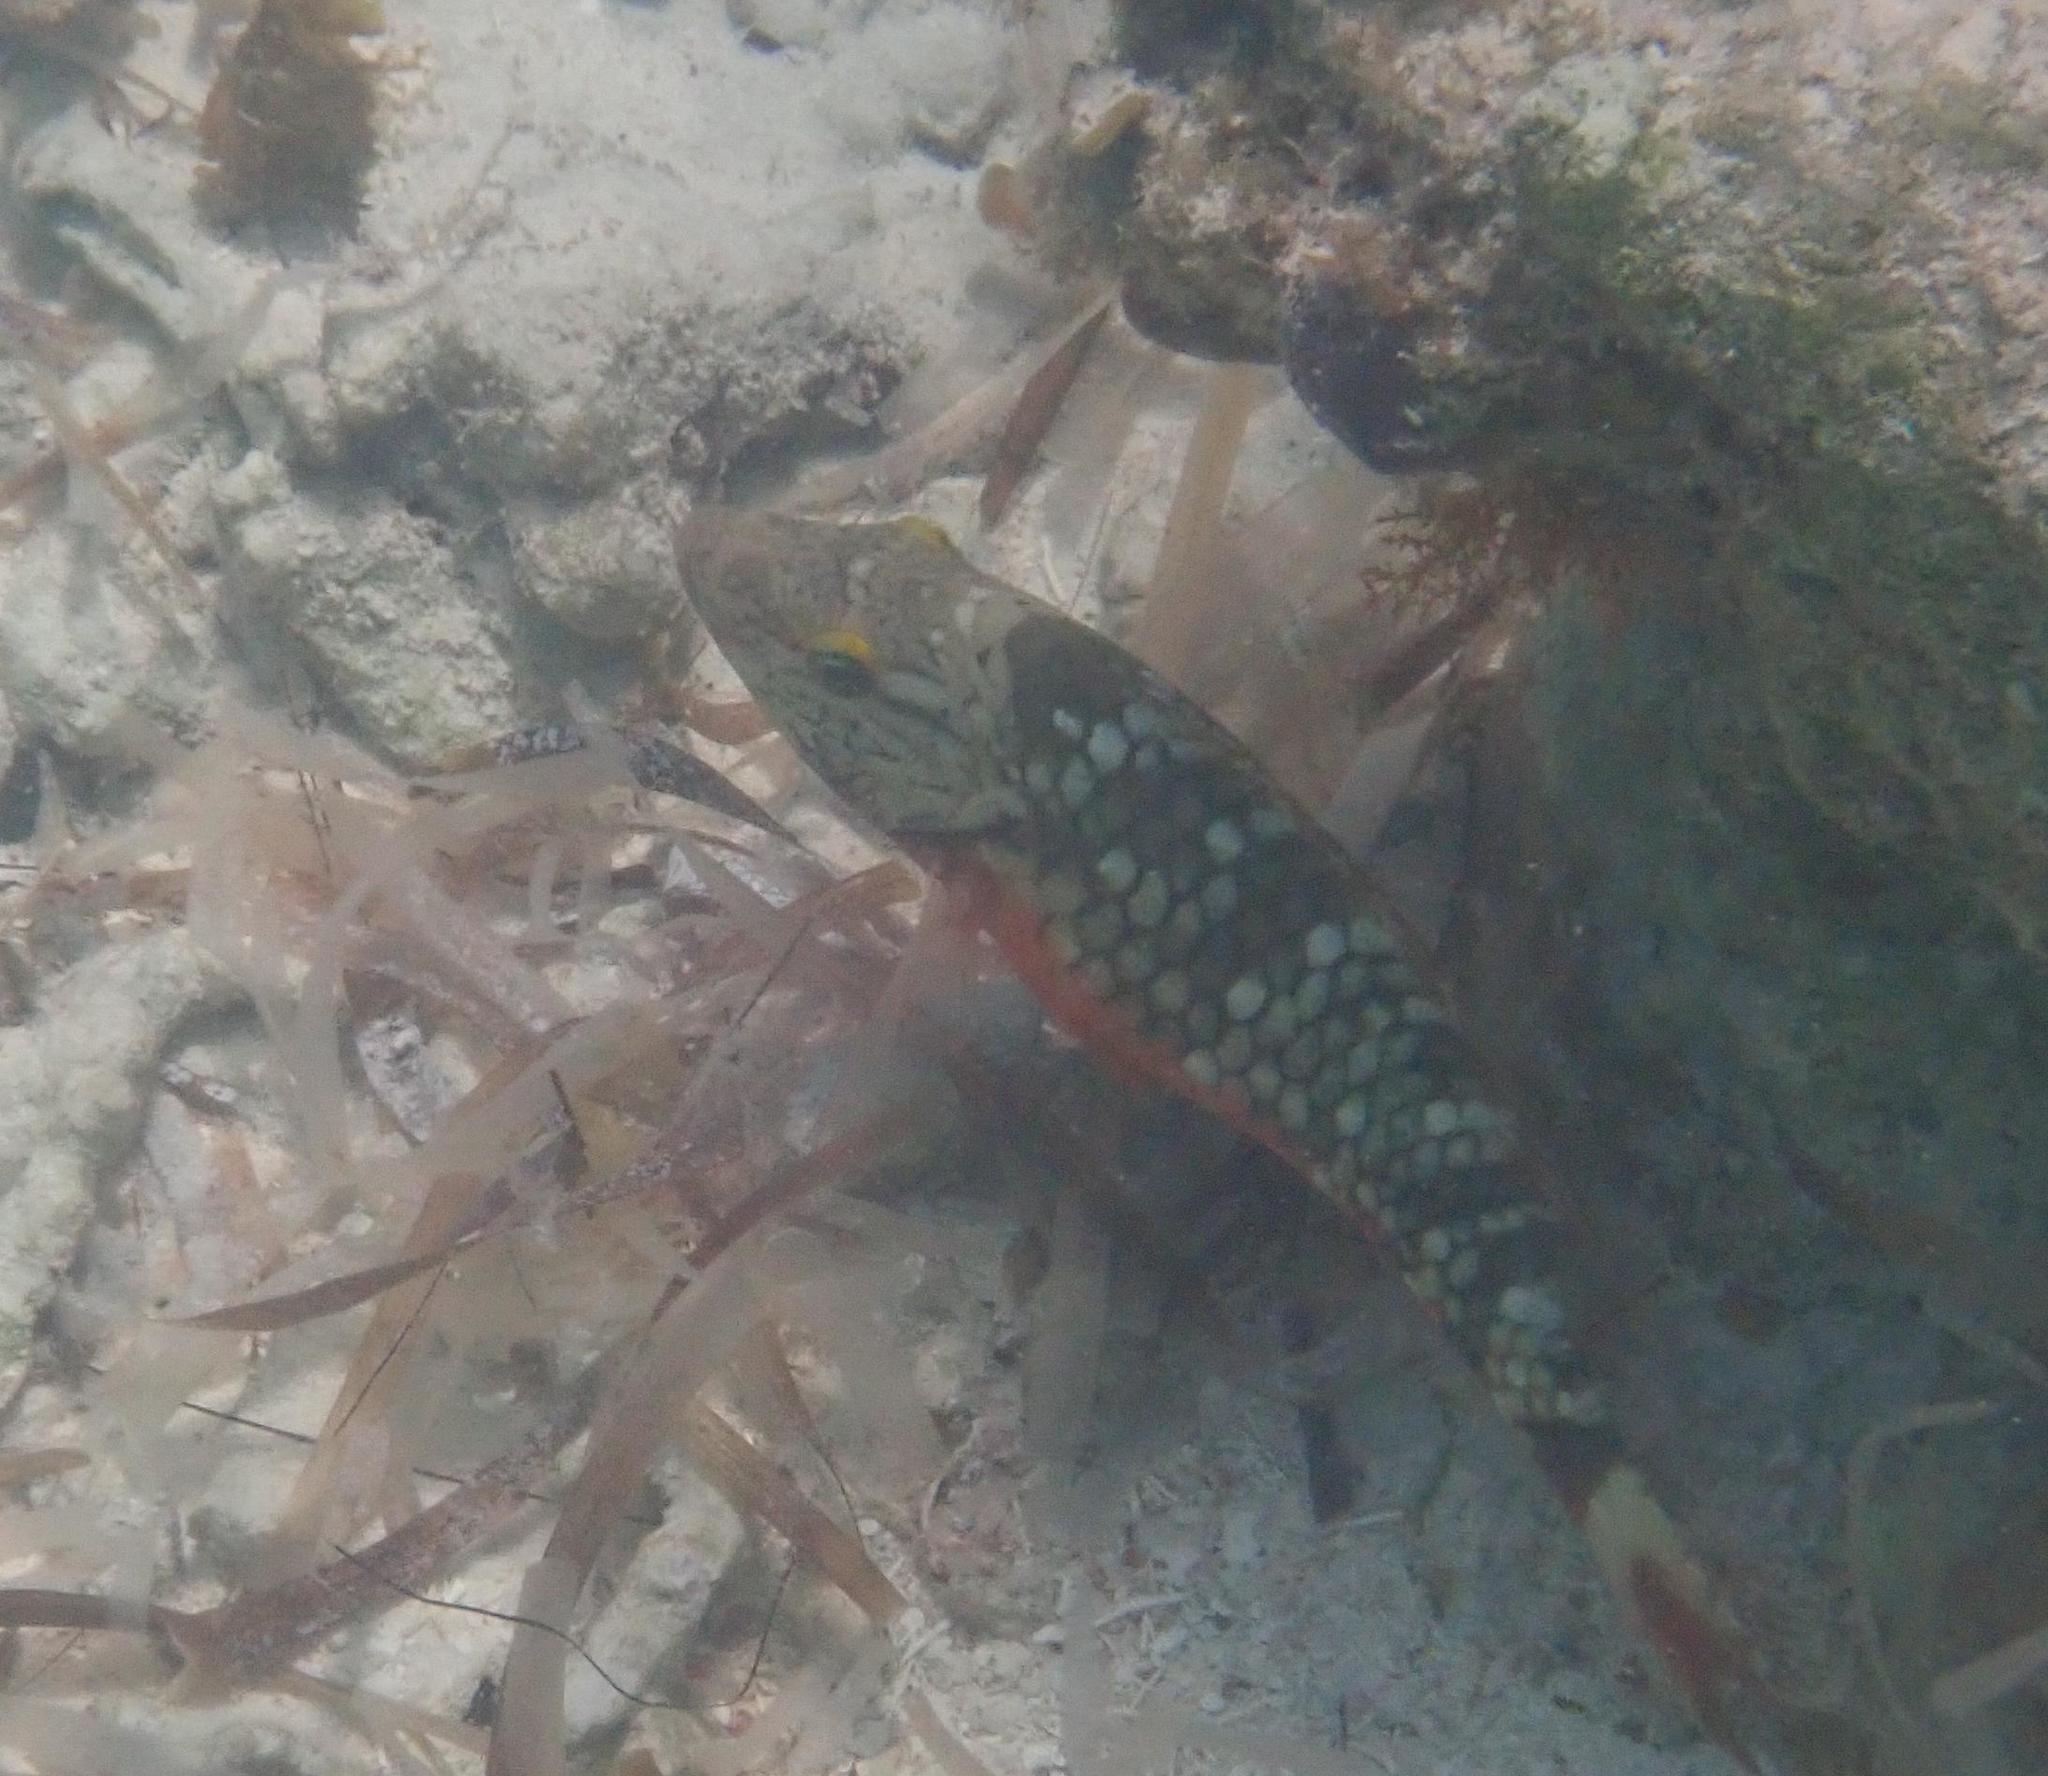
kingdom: Animalia
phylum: Chordata
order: Perciformes
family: Scaridae
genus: Sparisoma
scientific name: Sparisoma viride
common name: Stoplight parrotfish
